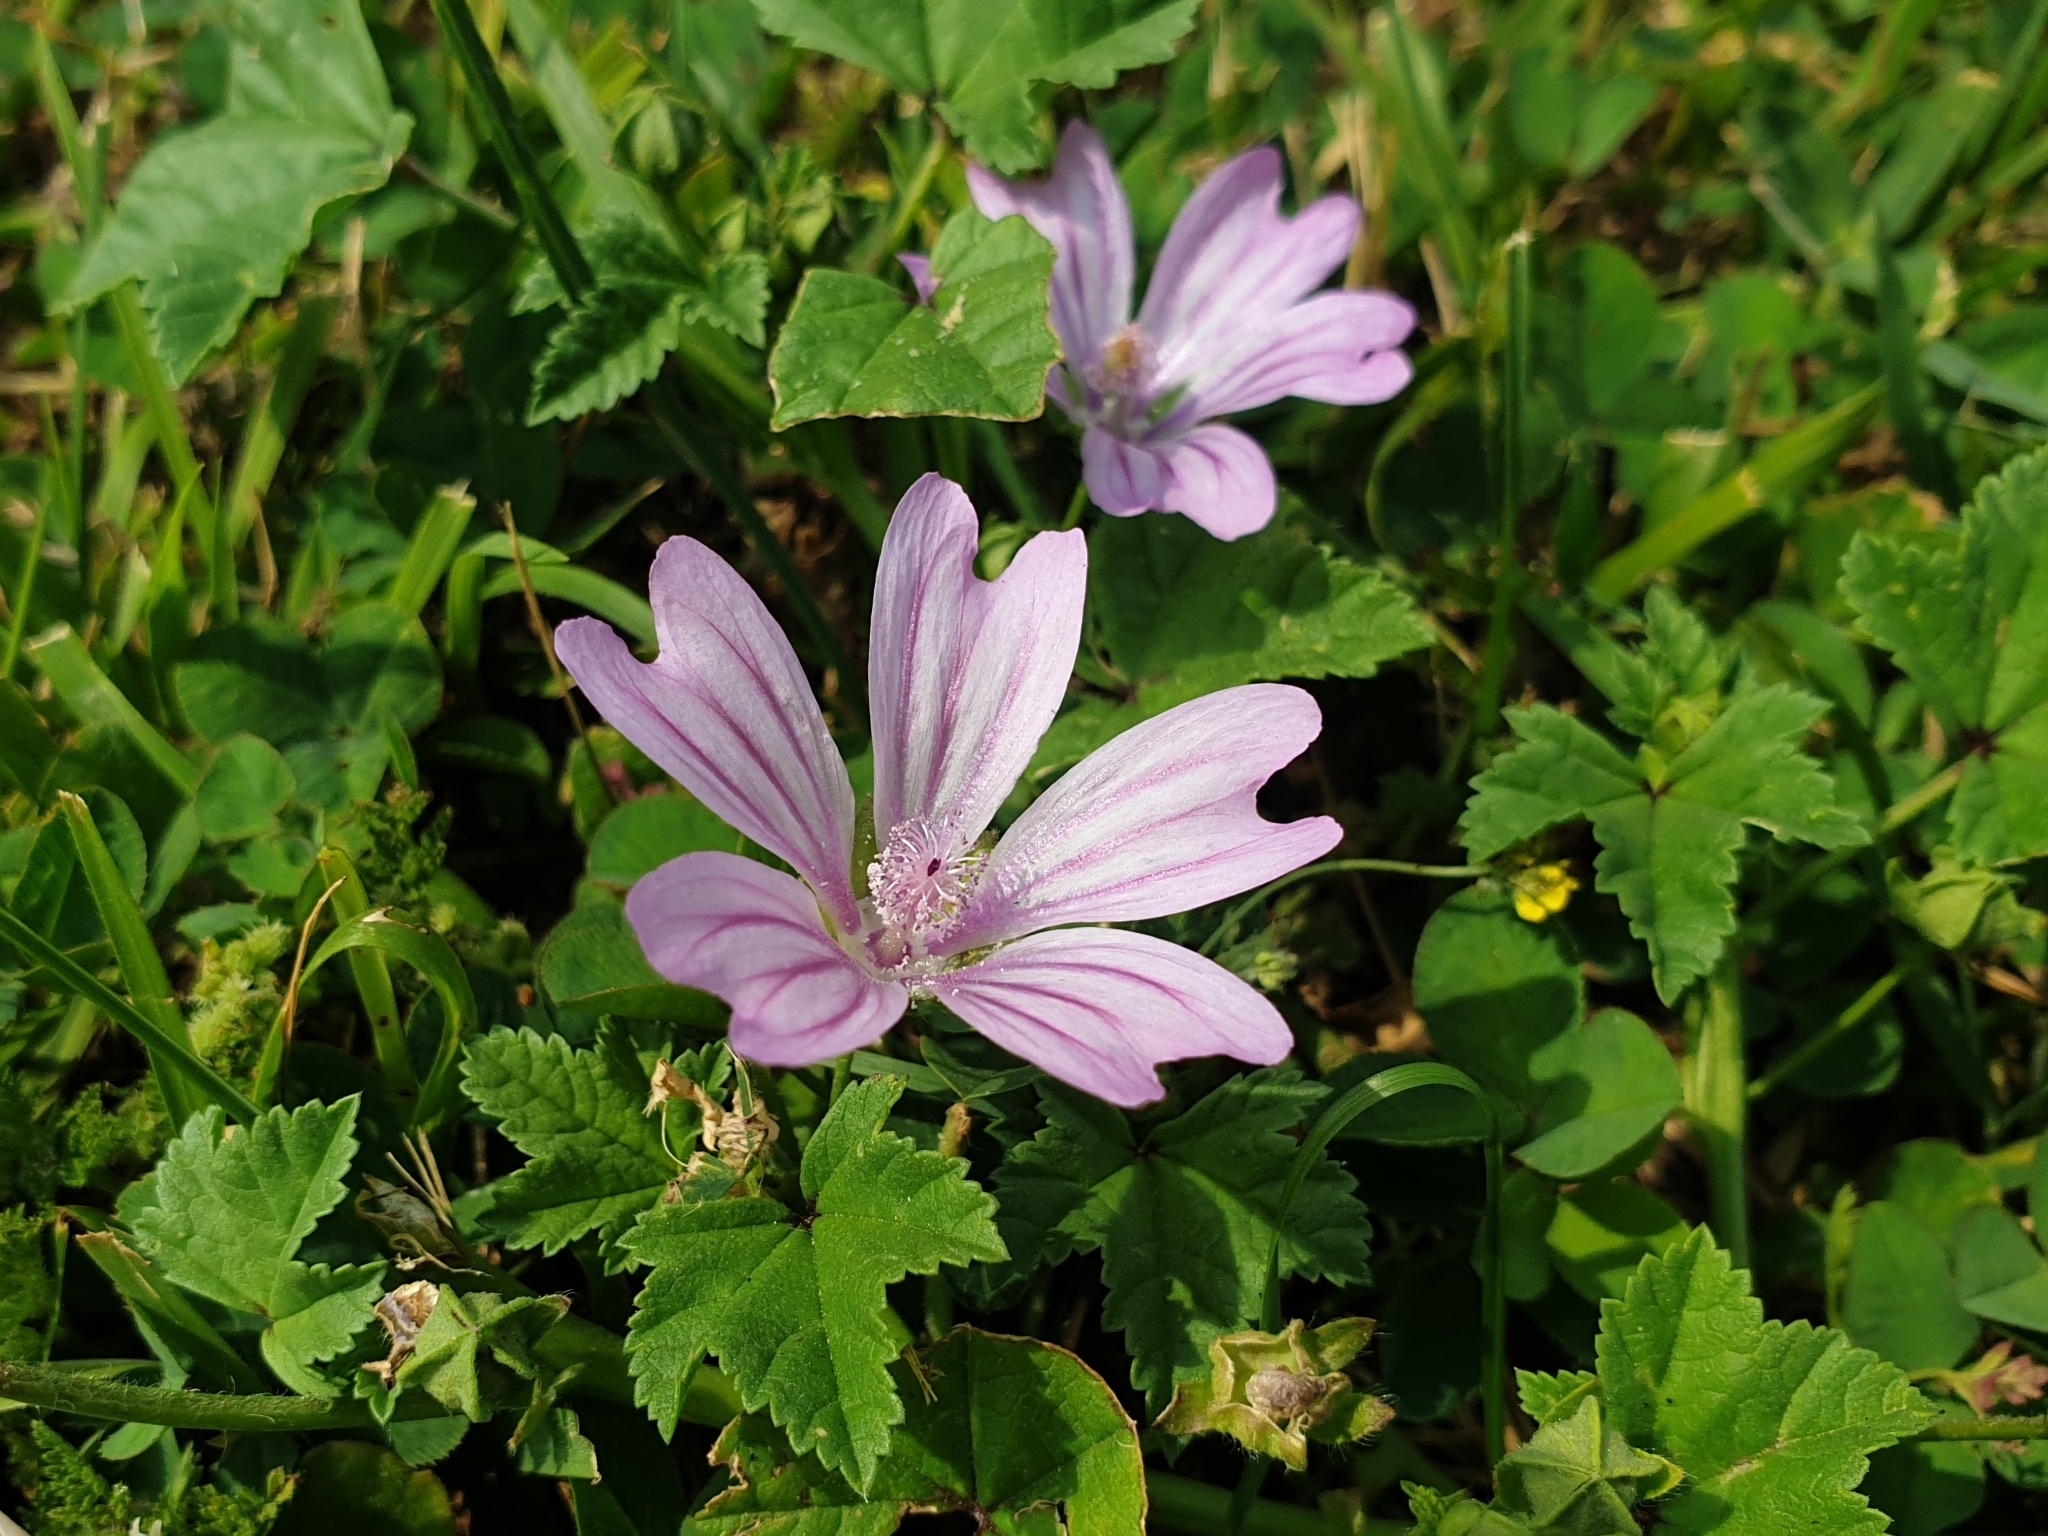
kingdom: Plantae
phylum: Tracheophyta
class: Magnoliopsida
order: Malvales
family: Malvaceae
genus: Malva
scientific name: Malva sylvestris
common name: Common mallow
